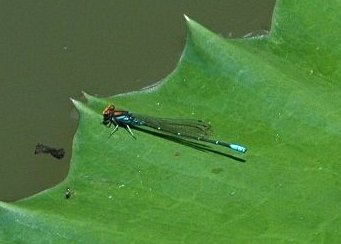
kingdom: Animalia
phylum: Arthropoda
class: Insecta
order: Odonata
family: Coenagrionidae
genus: Pseudagrion
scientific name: Pseudagrion punctum
